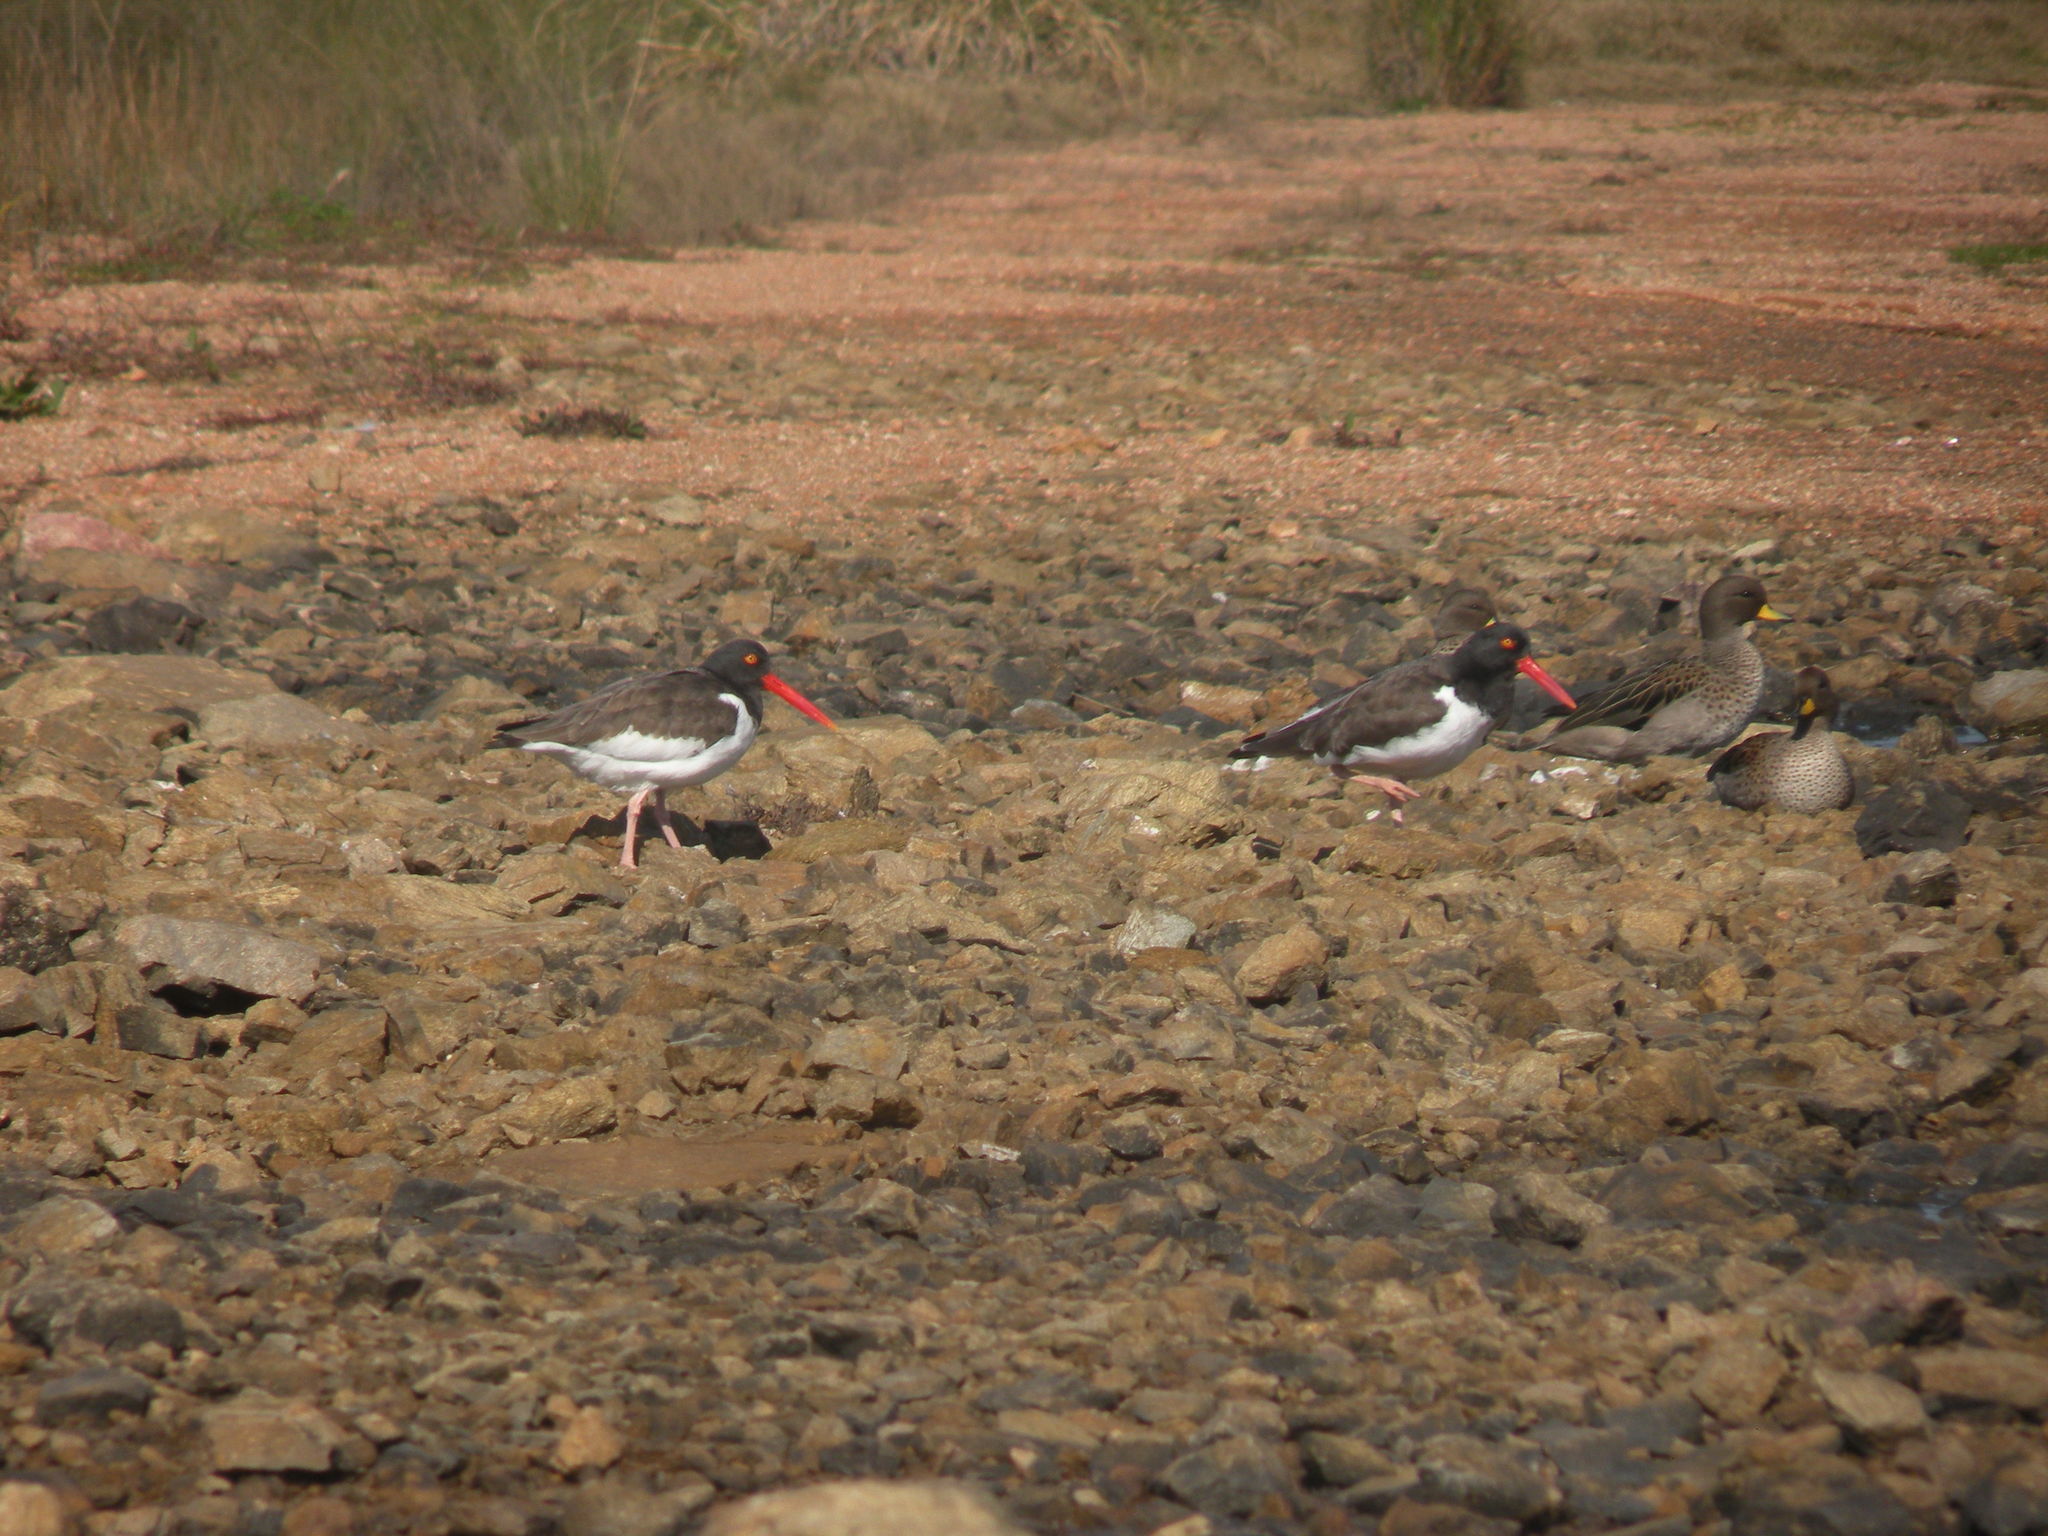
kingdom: Animalia
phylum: Chordata
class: Aves
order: Charadriiformes
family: Haematopodidae
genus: Haematopus
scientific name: Haematopus palliatus
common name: American oystercatcher
